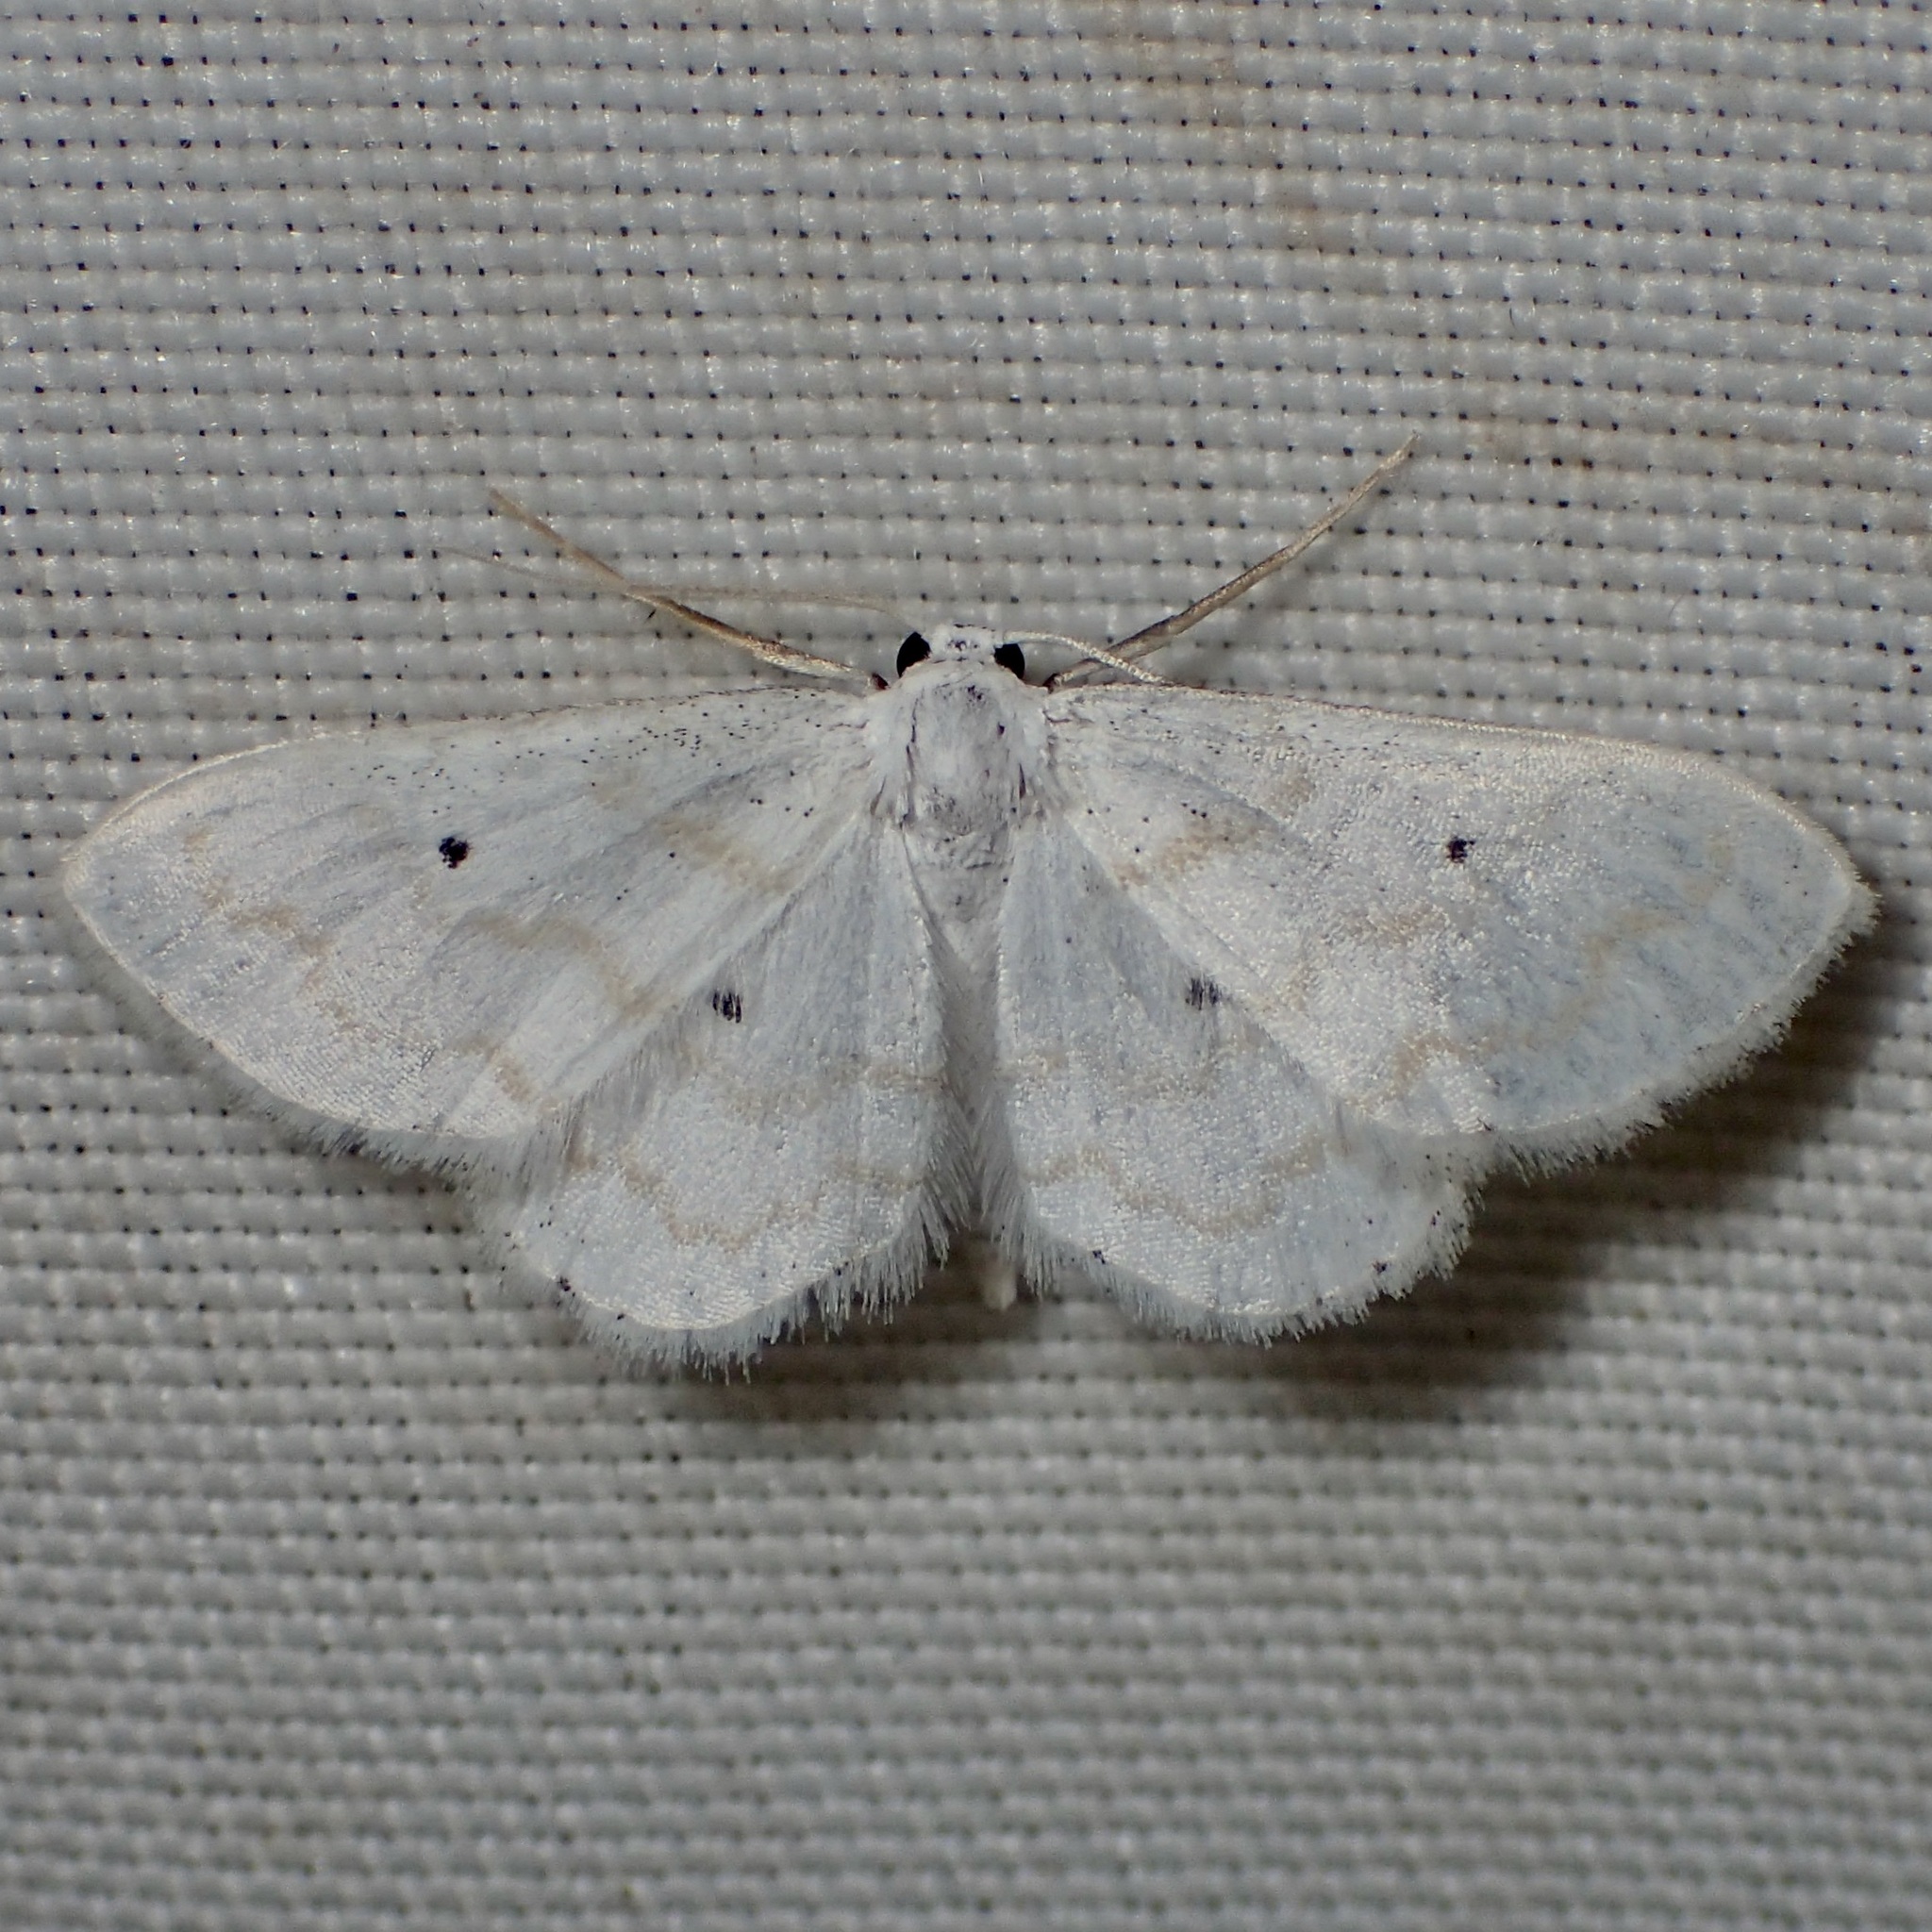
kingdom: Animalia
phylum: Arthropoda
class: Insecta
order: Lepidoptera
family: Geometridae
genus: Lobocleta
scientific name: Lobocleta peralbata
